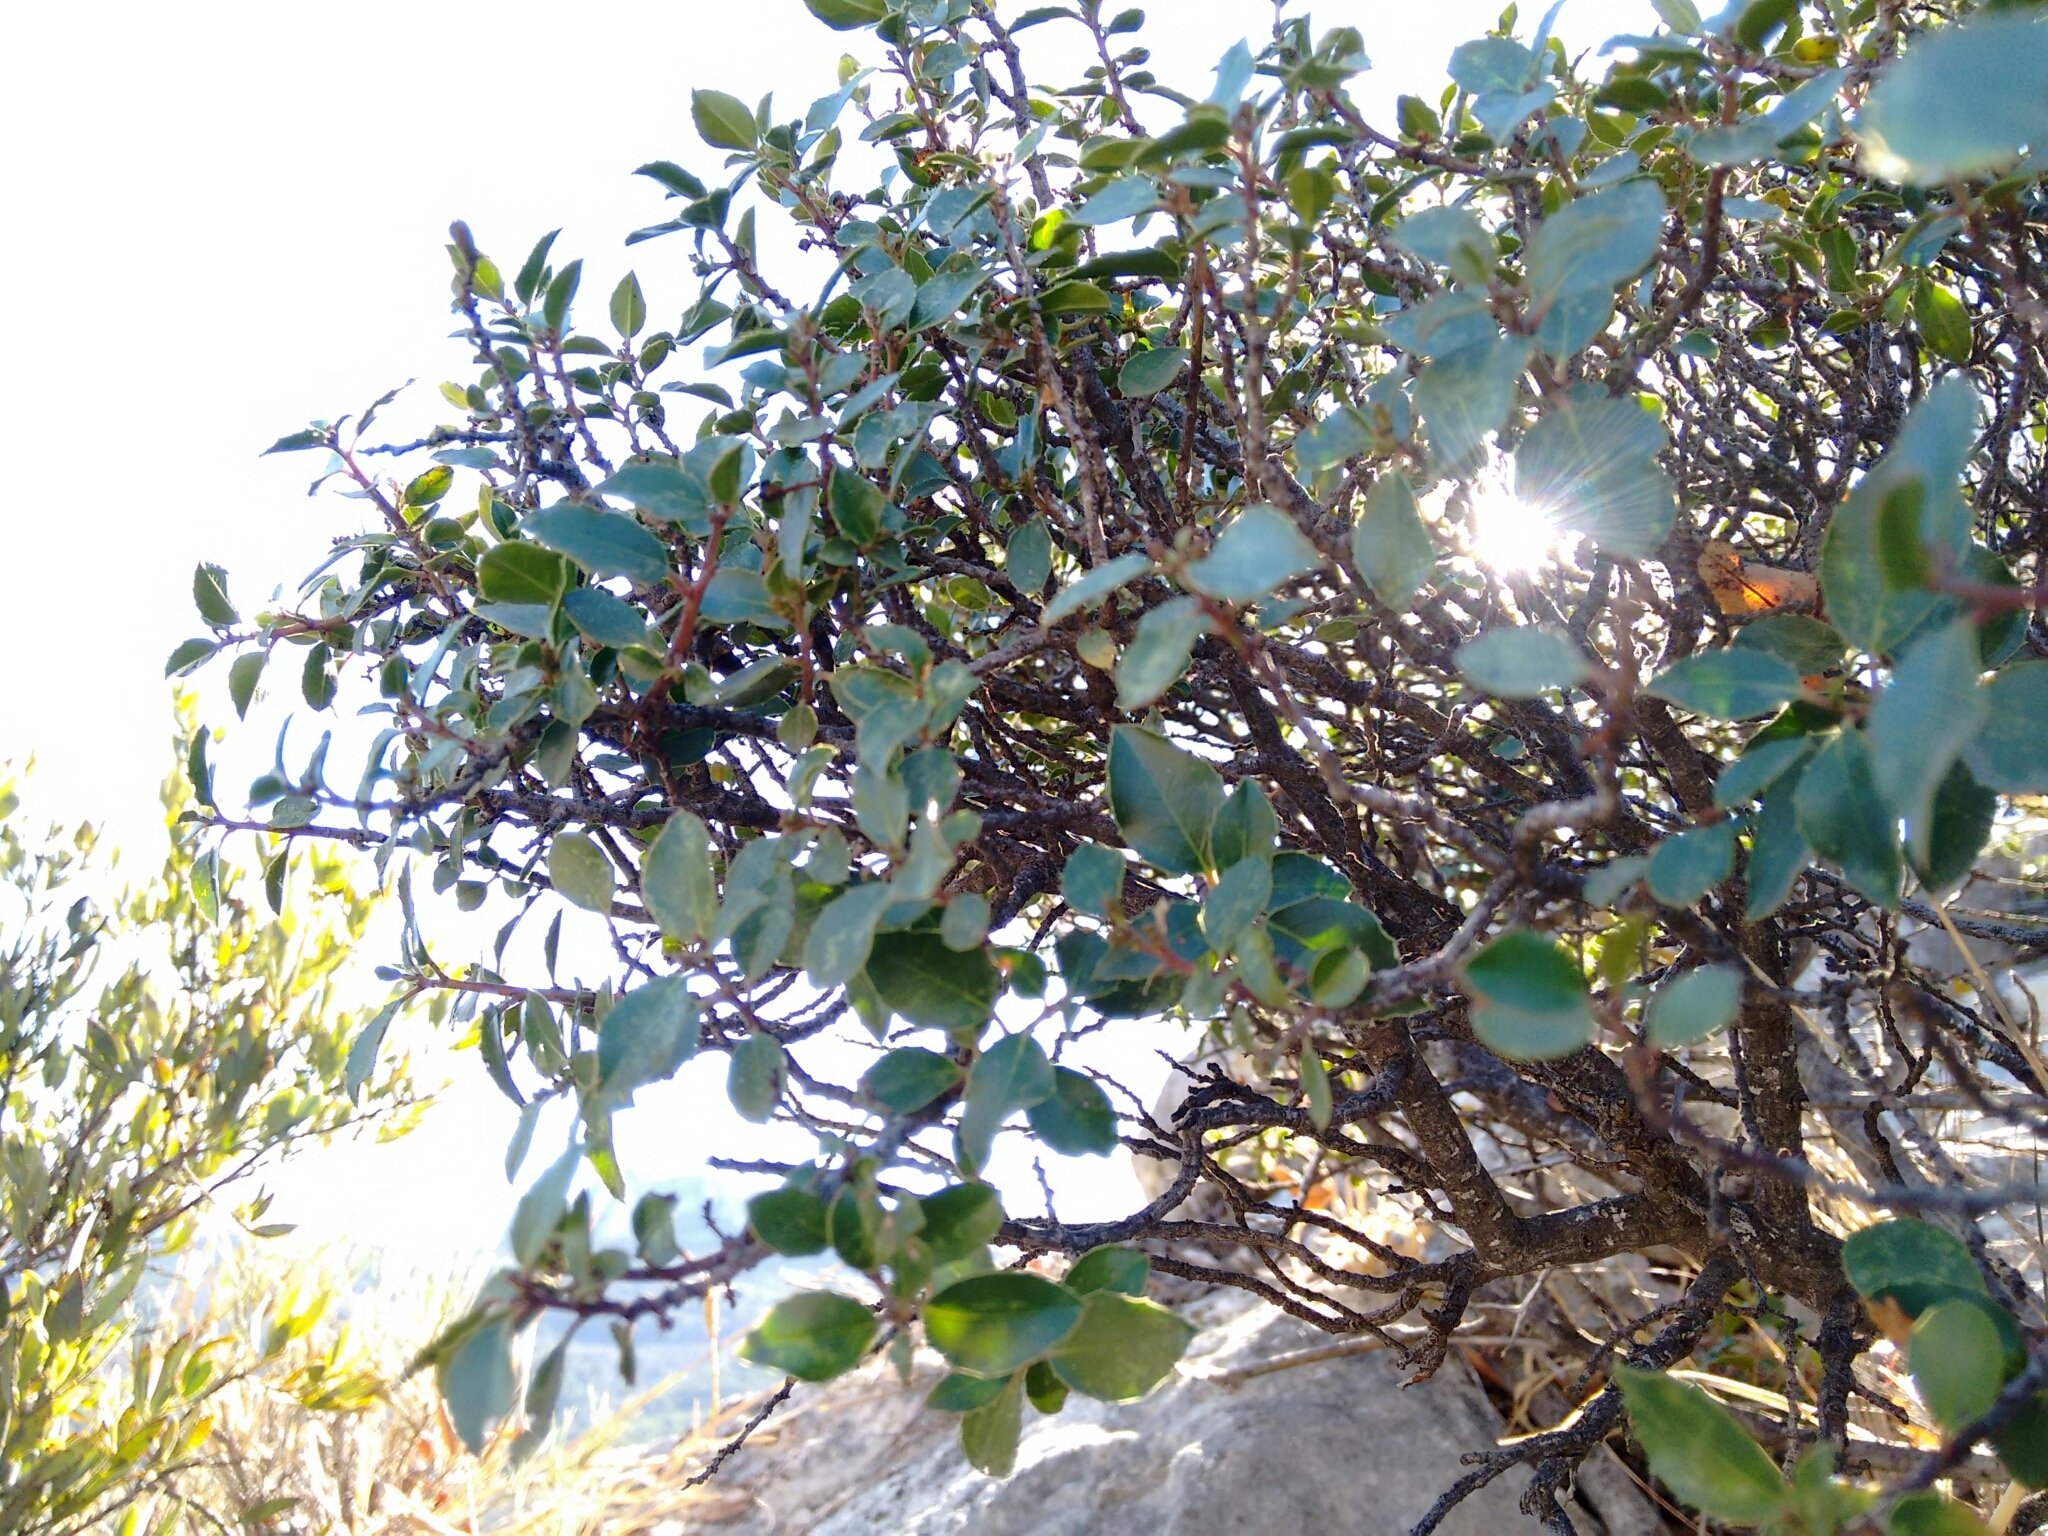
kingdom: Plantae
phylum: Tracheophyta
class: Magnoliopsida
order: Rosales
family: Rhamnaceae
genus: Rhamnus
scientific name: Rhamnus alaternus
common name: Mediterranean buckthorn
